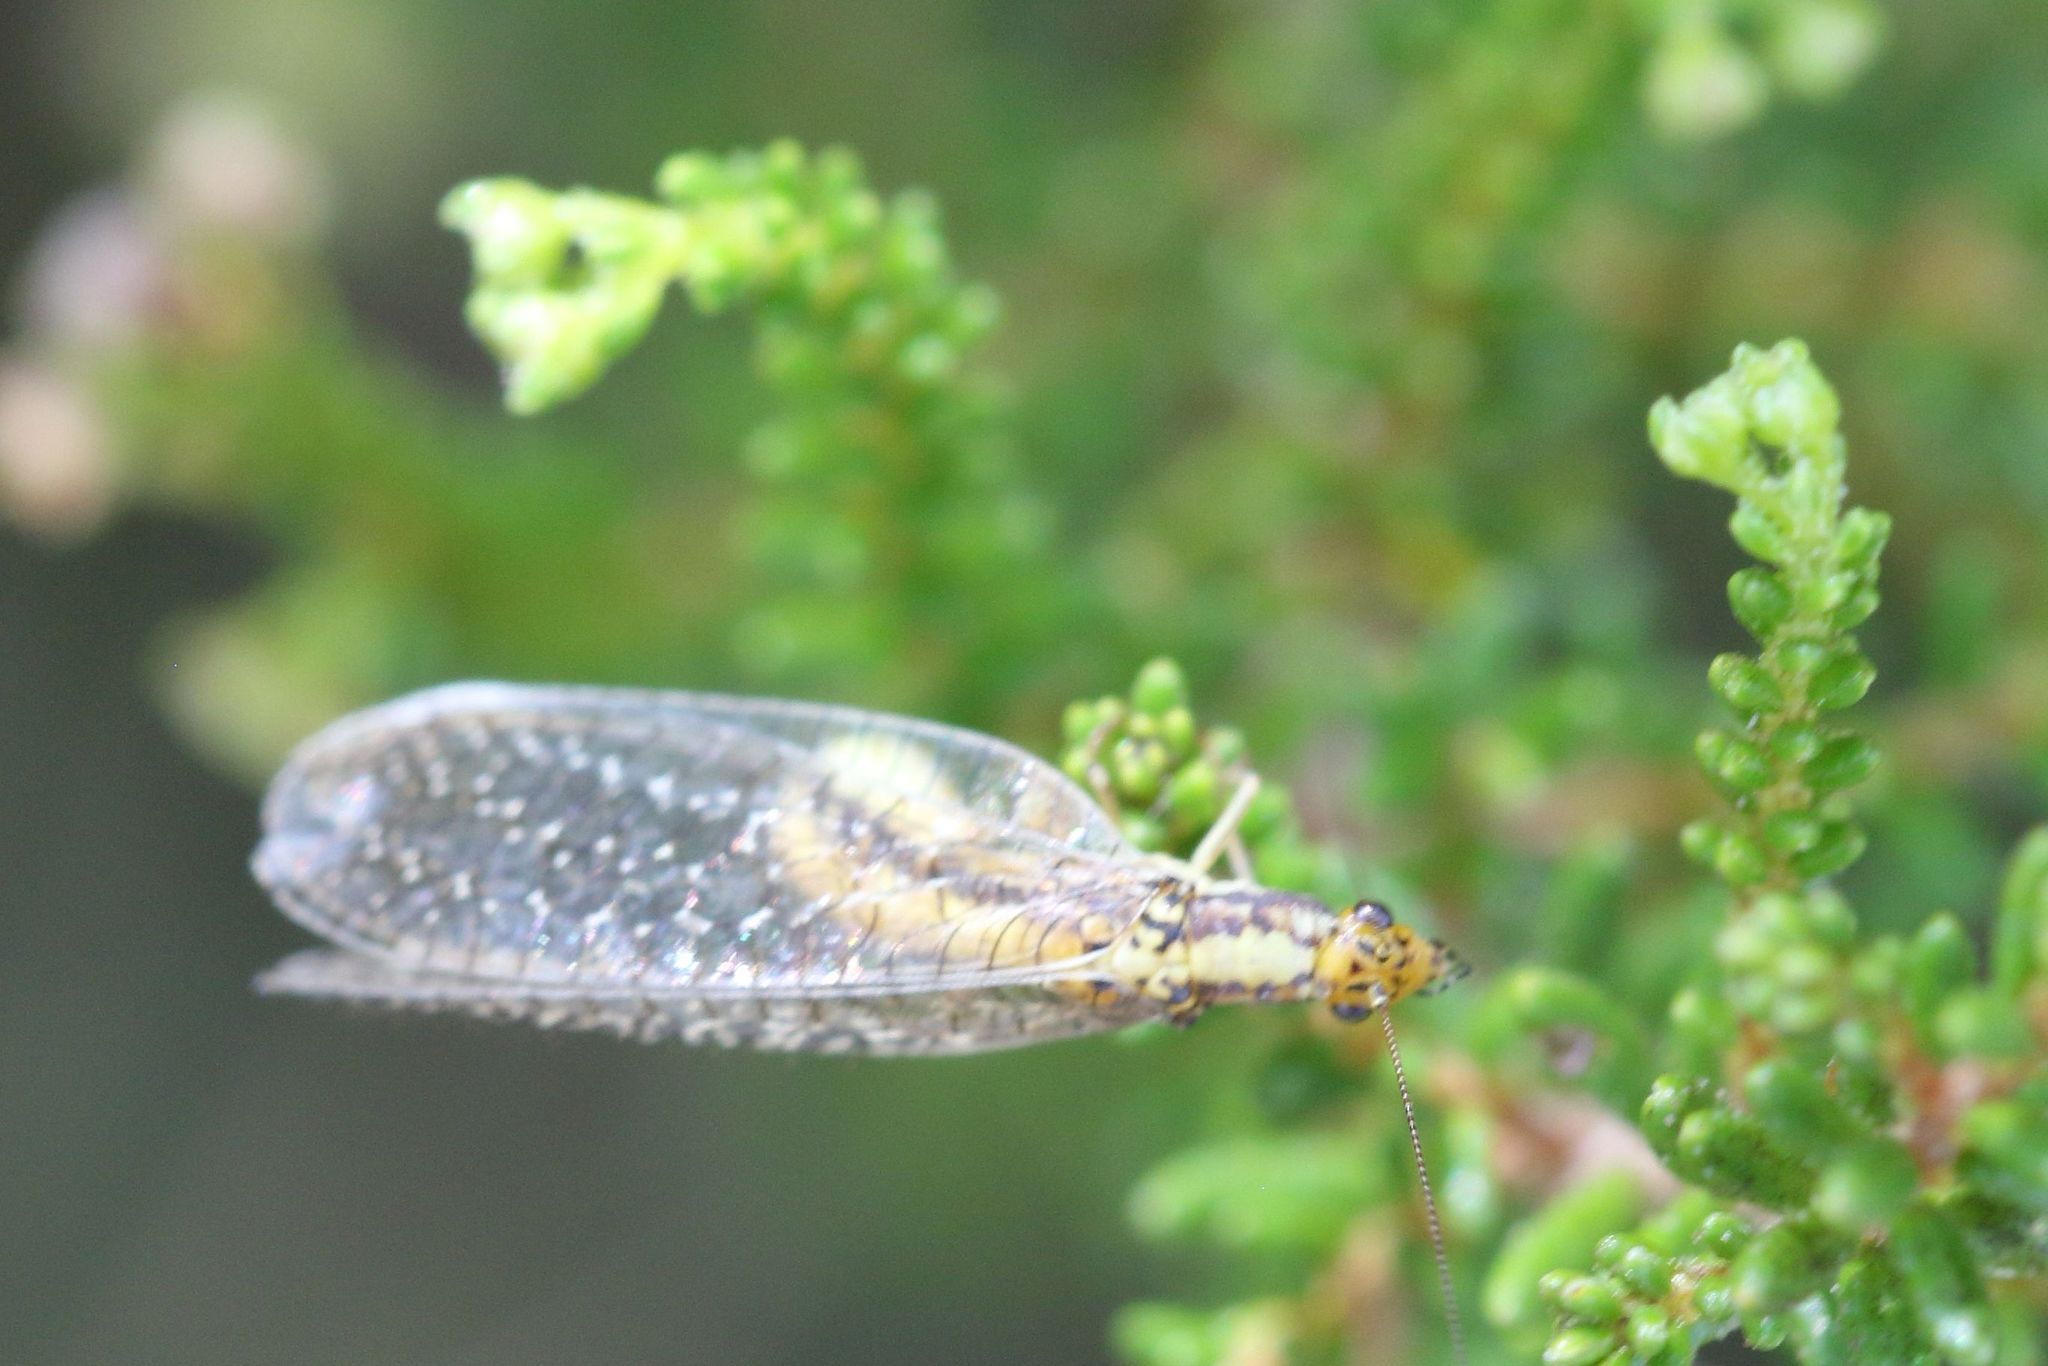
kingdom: Animalia
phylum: Arthropoda
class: Insecta
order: Neuroptera
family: Chrysopidae
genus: Pamochrysa
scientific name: Pamochrysa stellata
